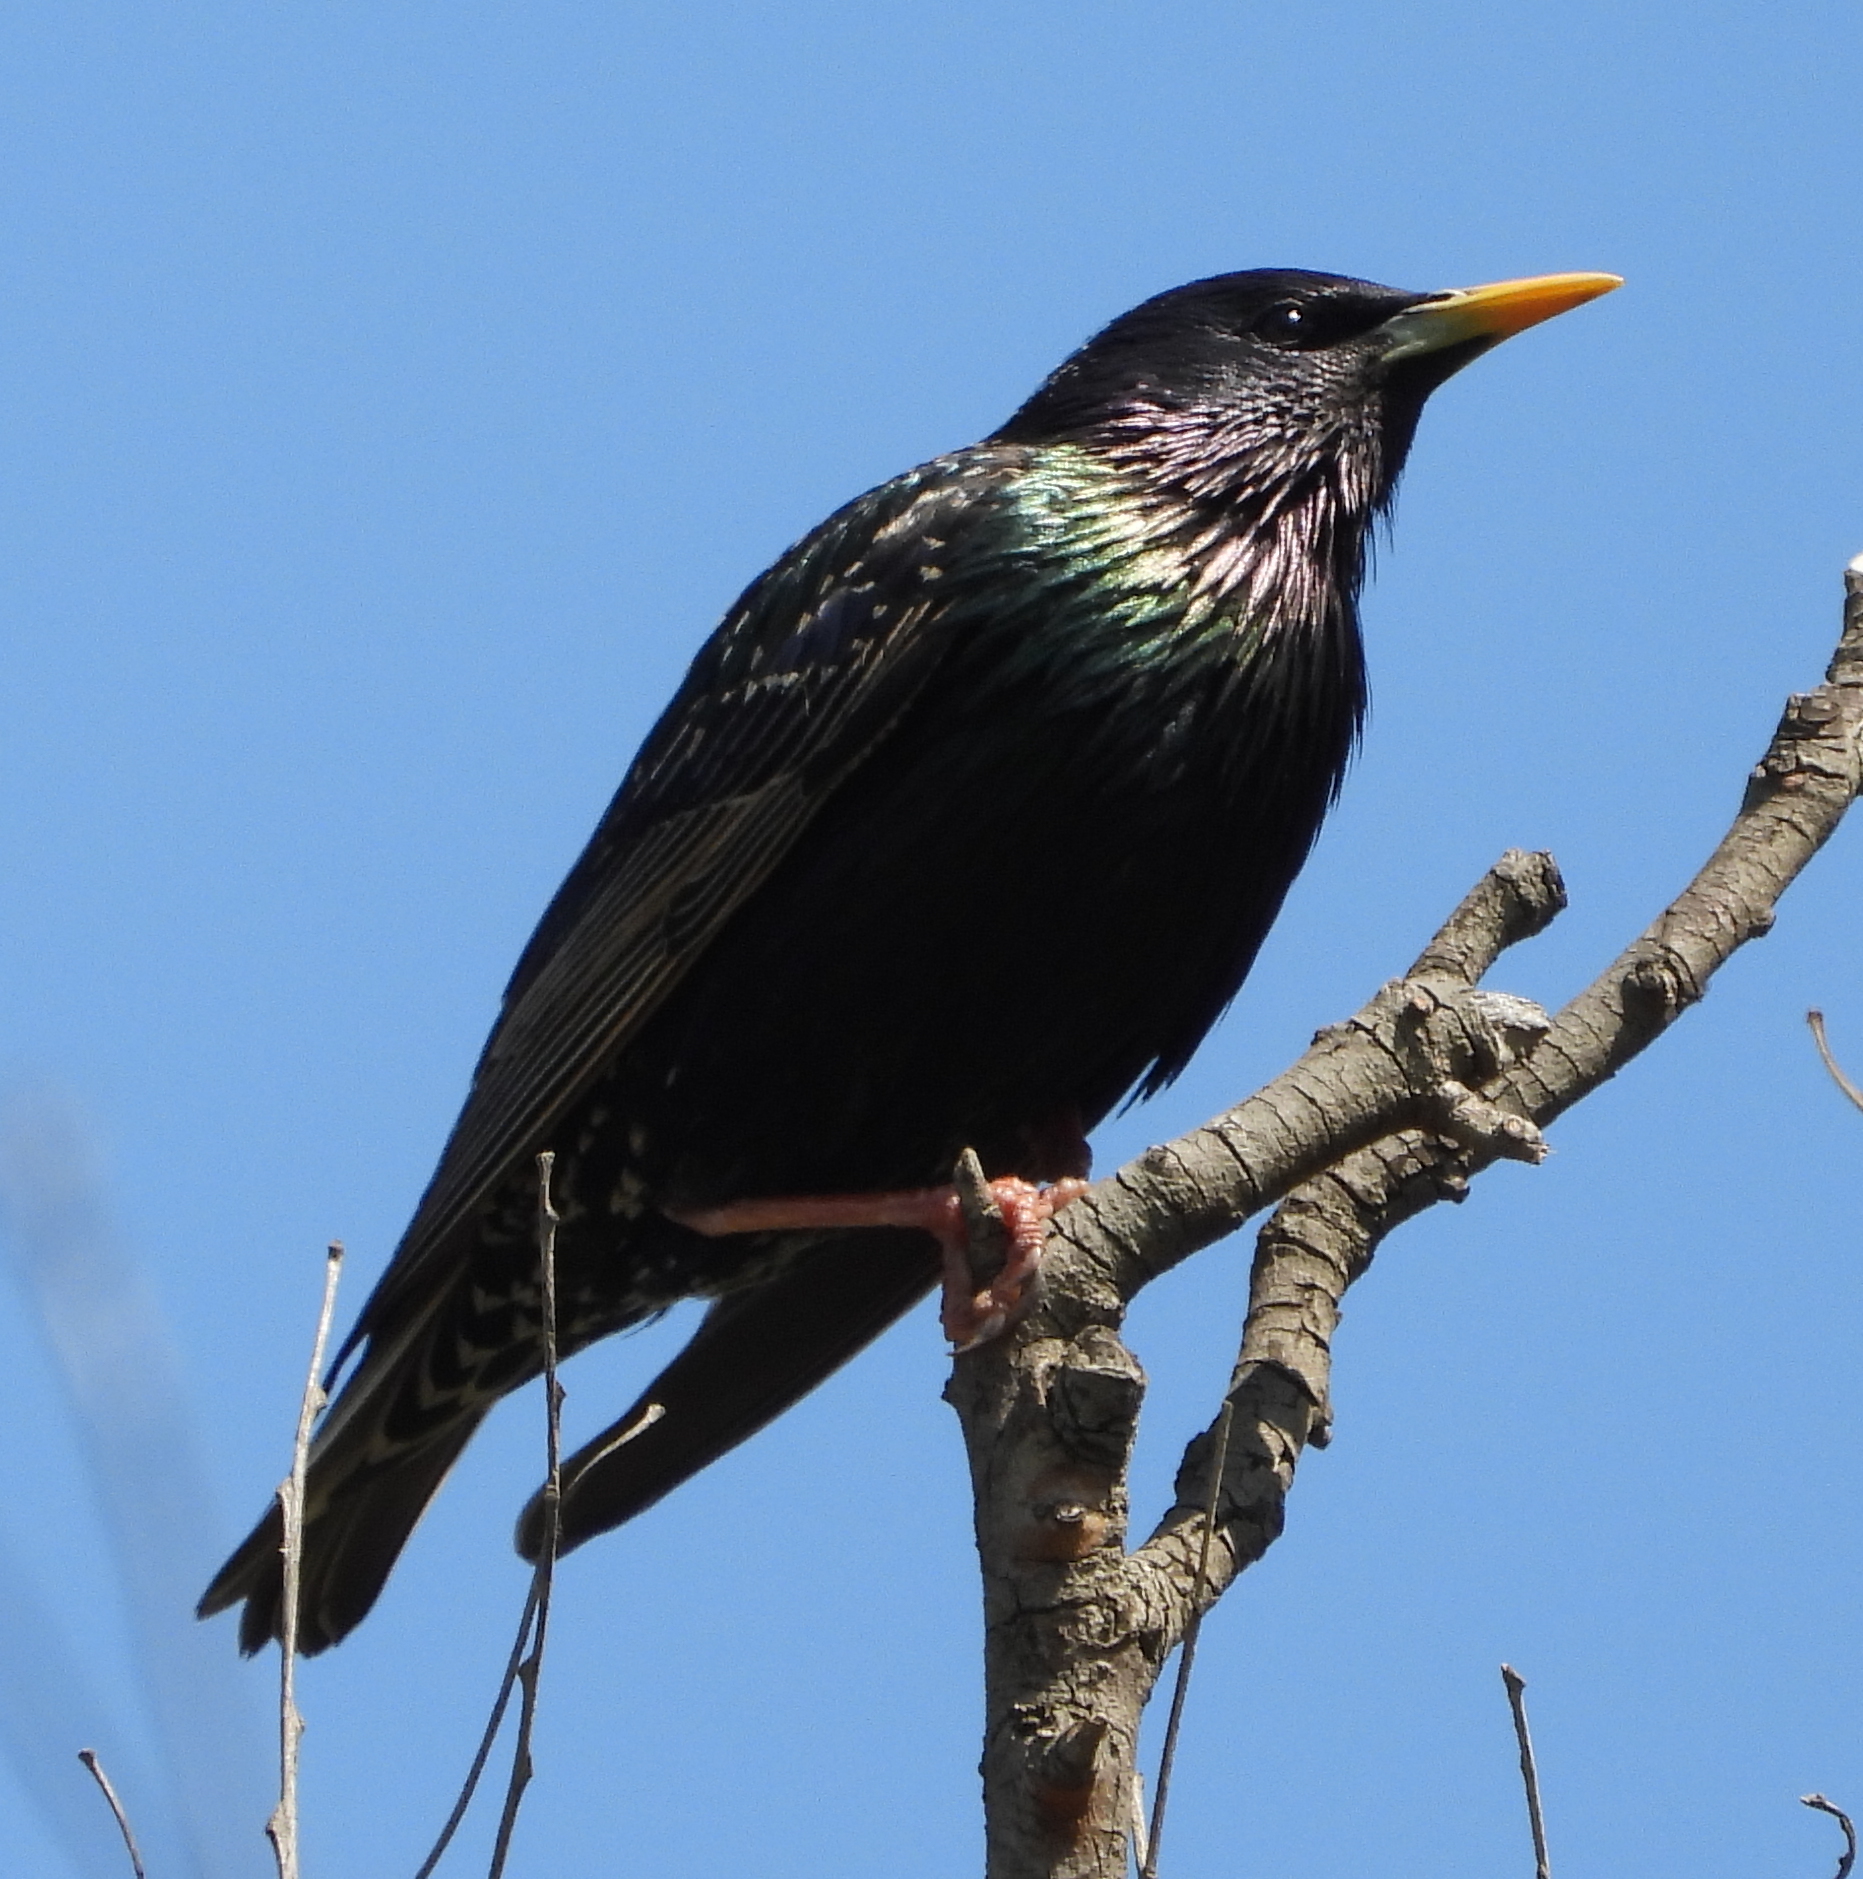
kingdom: Animalia
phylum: Chordata
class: Aves
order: Passeriformes
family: Sturnidae
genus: Sturnus
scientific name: Sturnus vulgaris
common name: Common starling
